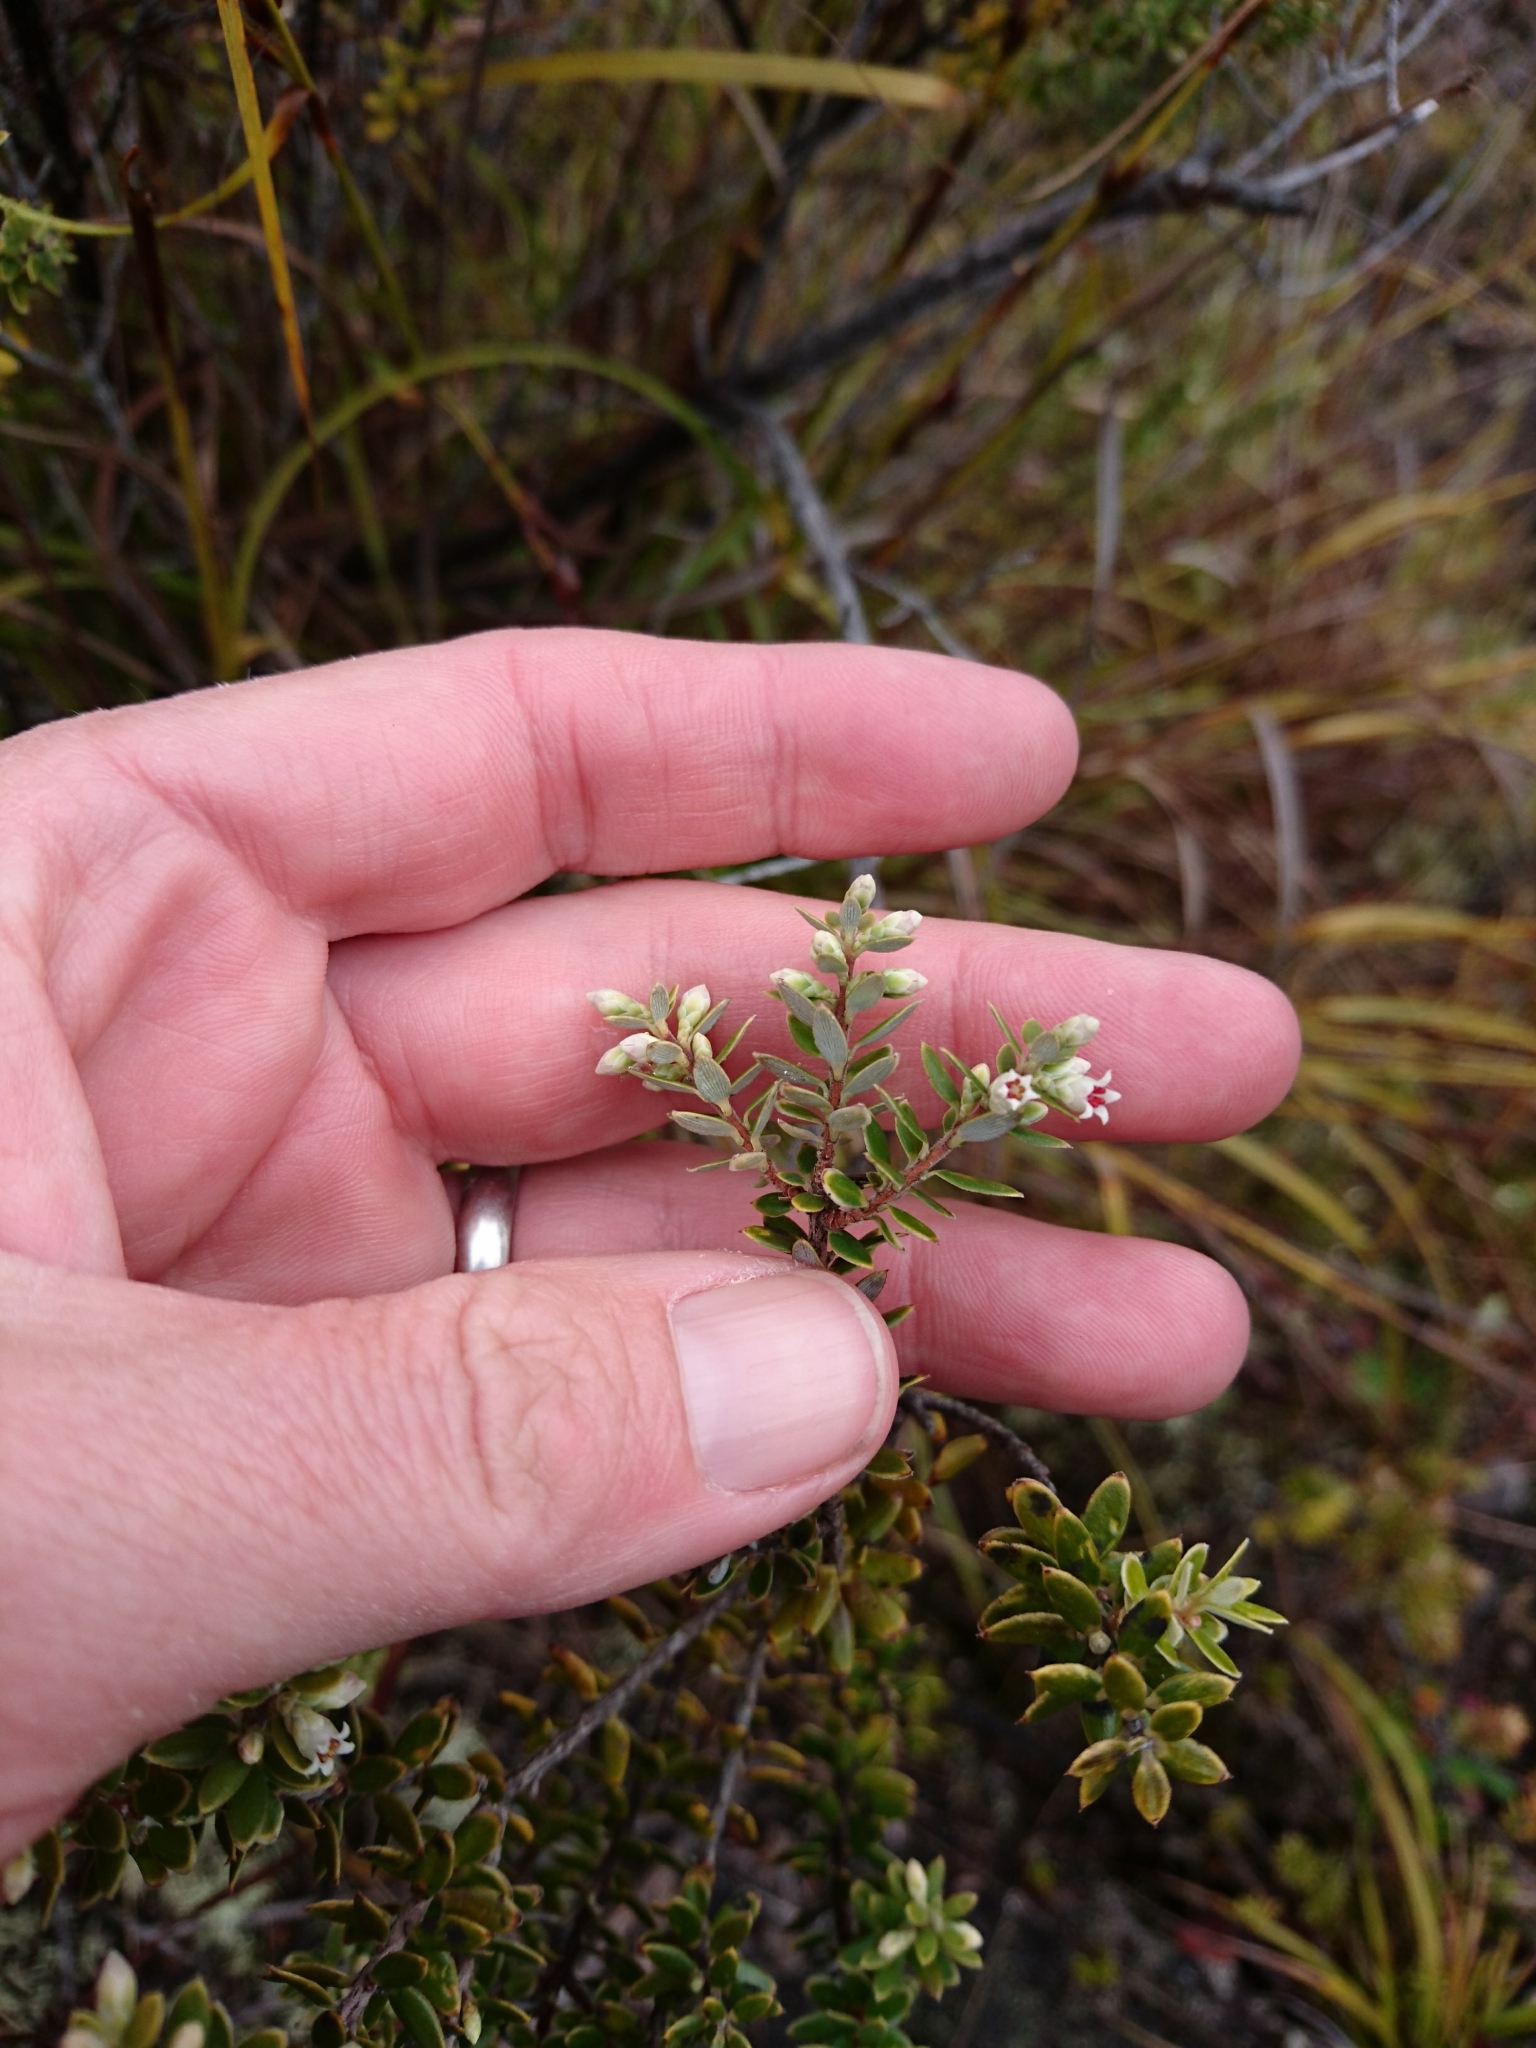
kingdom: Plantae
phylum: Tracheophyta
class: Magnoliopsida
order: Ericales
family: Ericaceae
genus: Leptecophylla
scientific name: Leptecophylla tameiameiae
